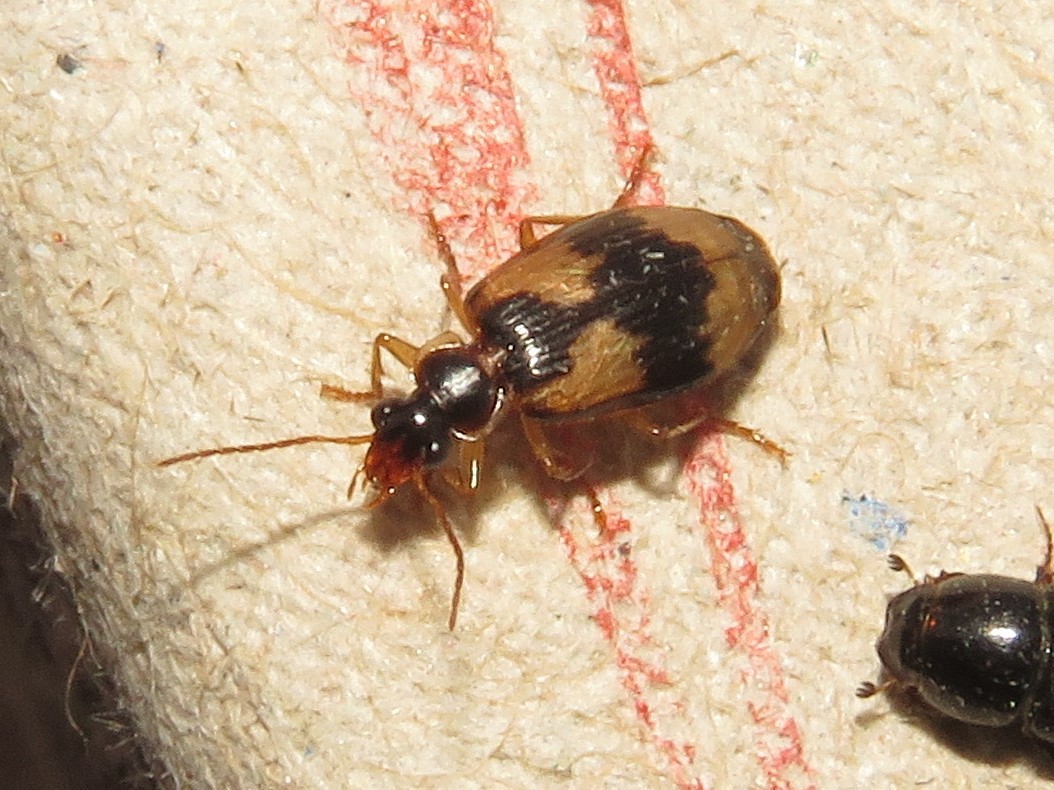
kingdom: Animalia
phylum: Arthropoda
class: Insecta
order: Coleoptera
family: Carabidae
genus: Lebia
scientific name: Lebia fuscata
